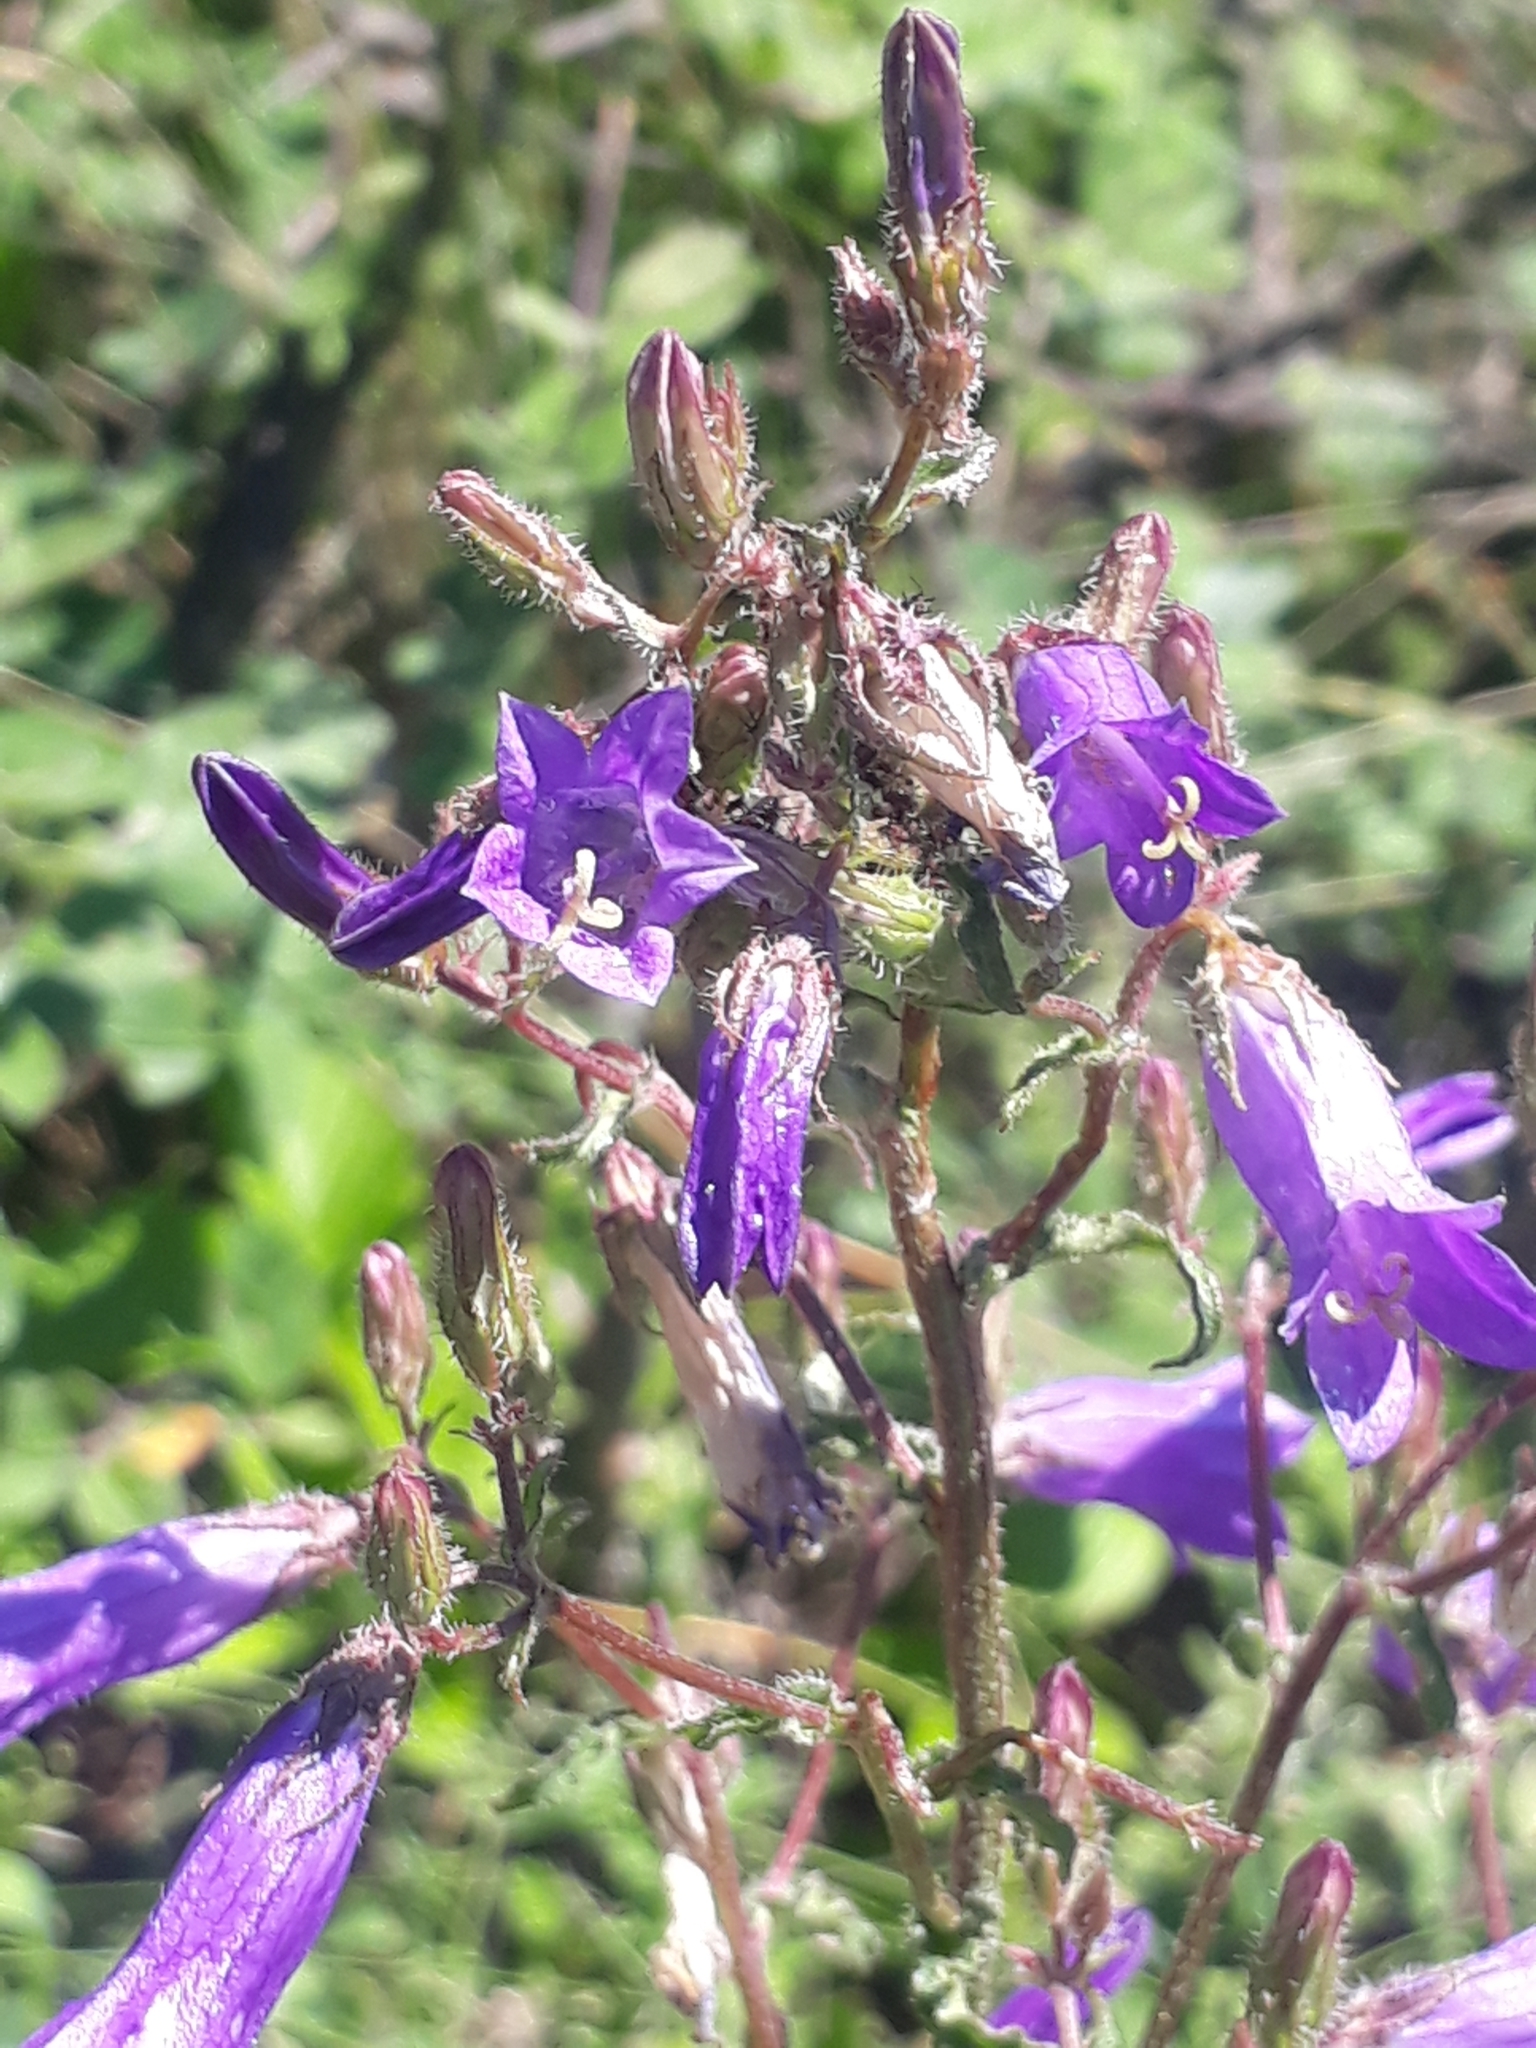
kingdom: Plantae
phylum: Tracheophyta
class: Magnoliopsida
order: Asterales
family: Campanulaceae
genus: Campanula
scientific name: Campanula sibirica
